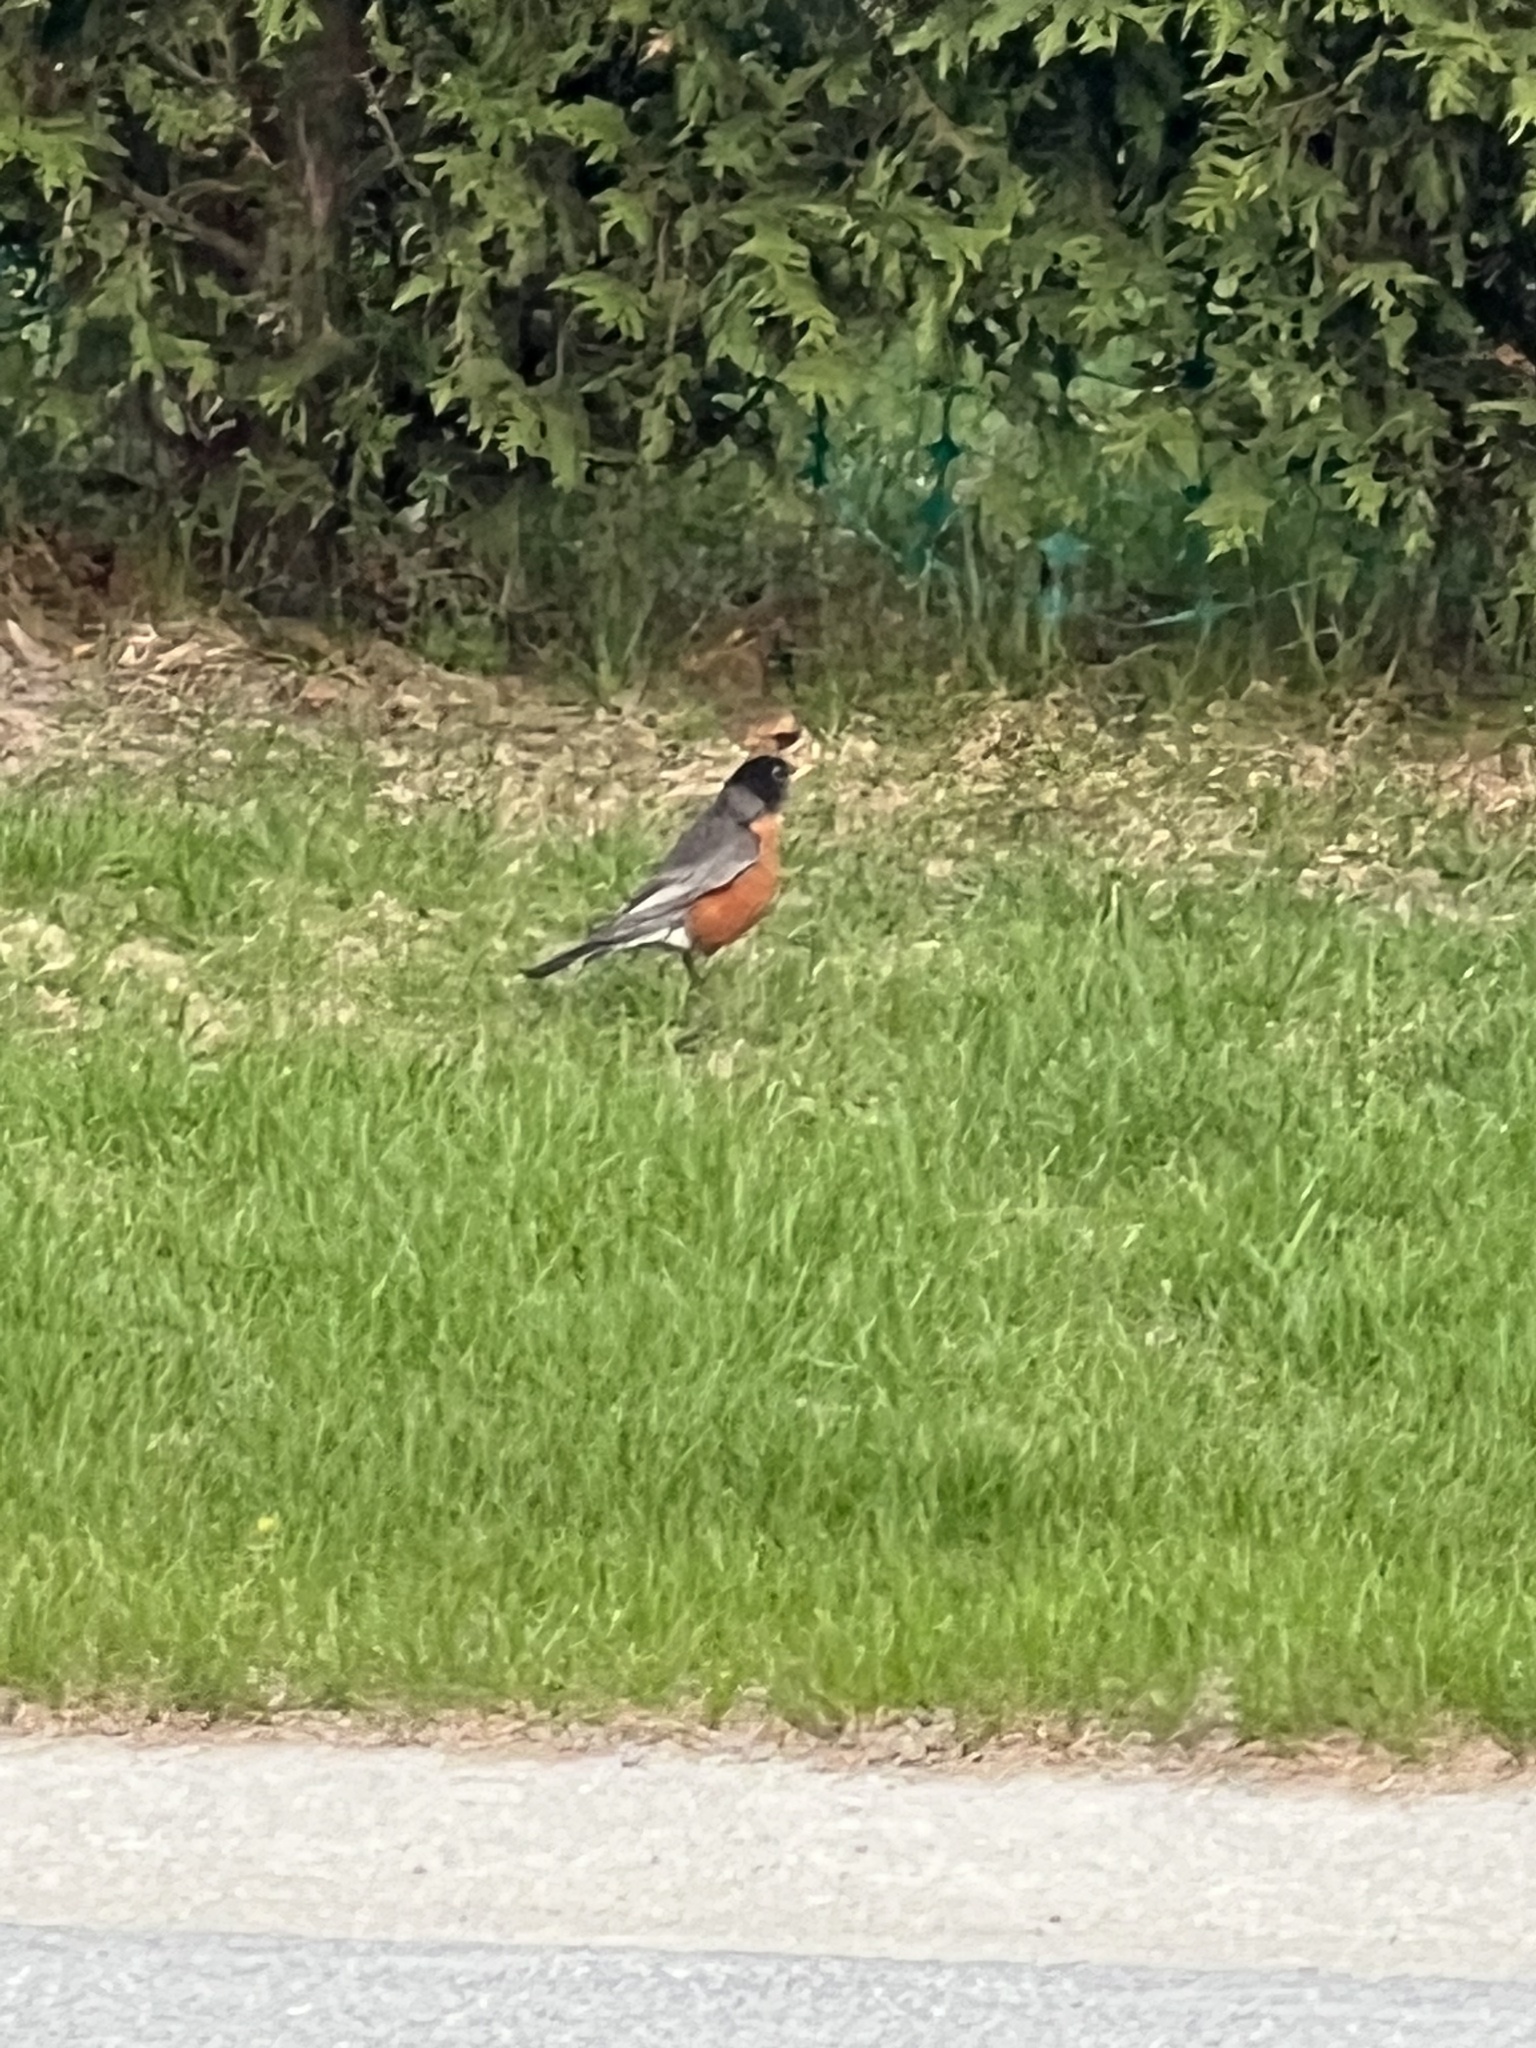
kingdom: Animalia
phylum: Chordata
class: Aves
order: Passeriformes
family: Turdidae
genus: Turdus
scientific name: Turdus migratorius
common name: American robin
